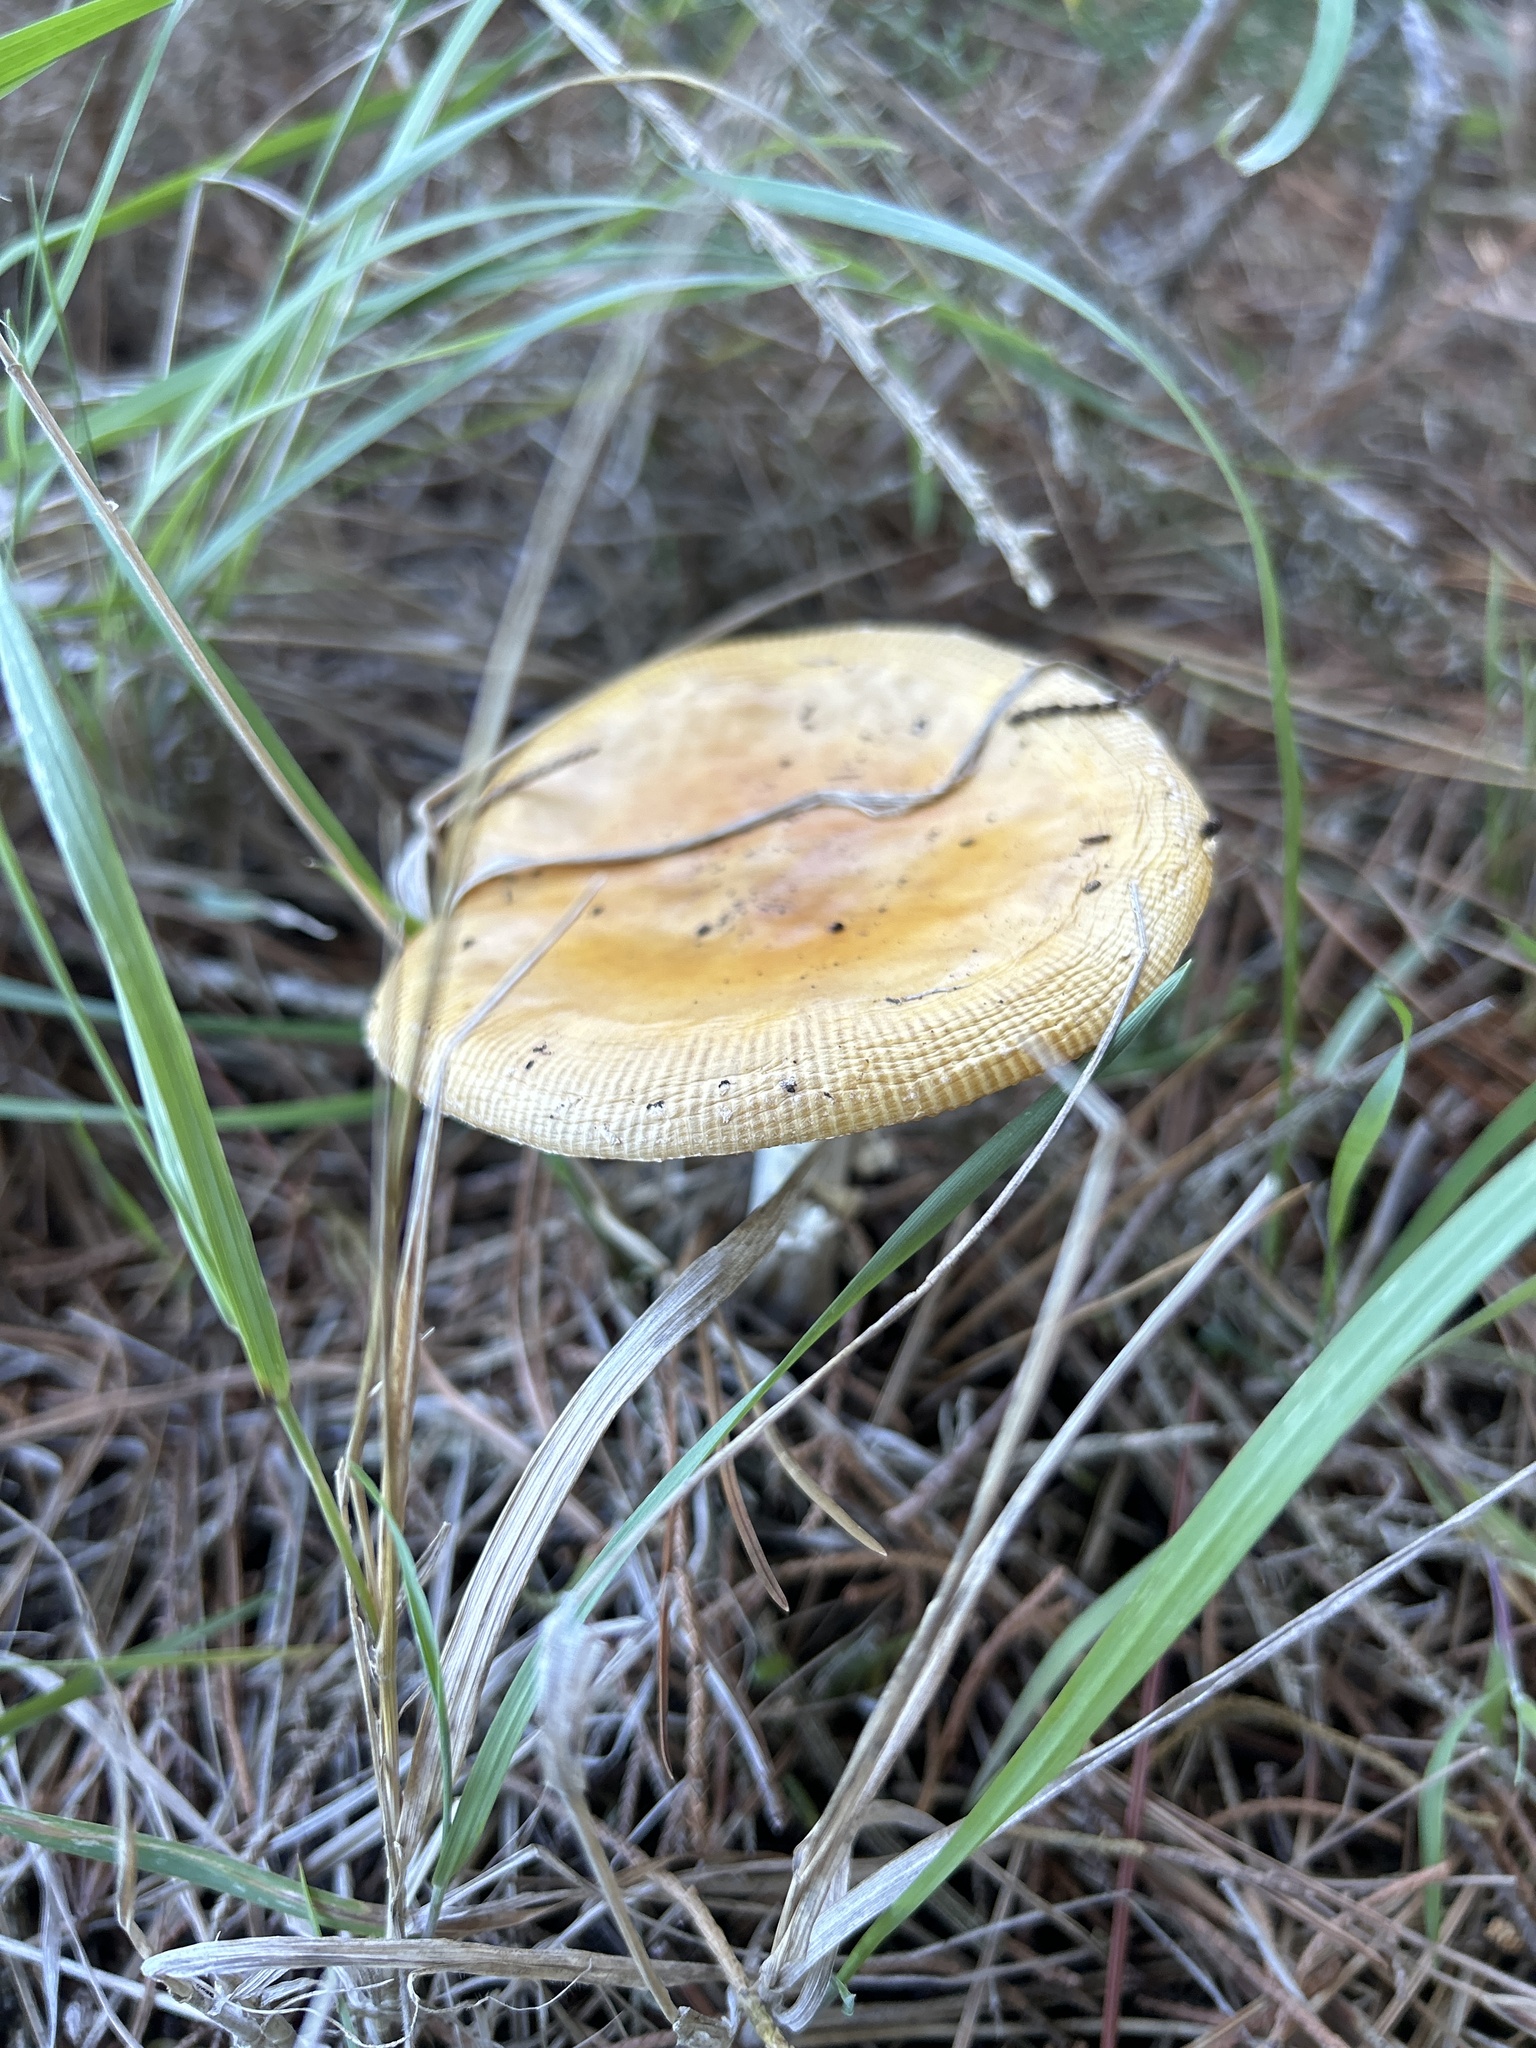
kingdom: Fungi
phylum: Basidiomycota
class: Agaricomycetes
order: Agaricales
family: Amanitaceae
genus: Amanita
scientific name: Amanita muscaria
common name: Fly agaric
